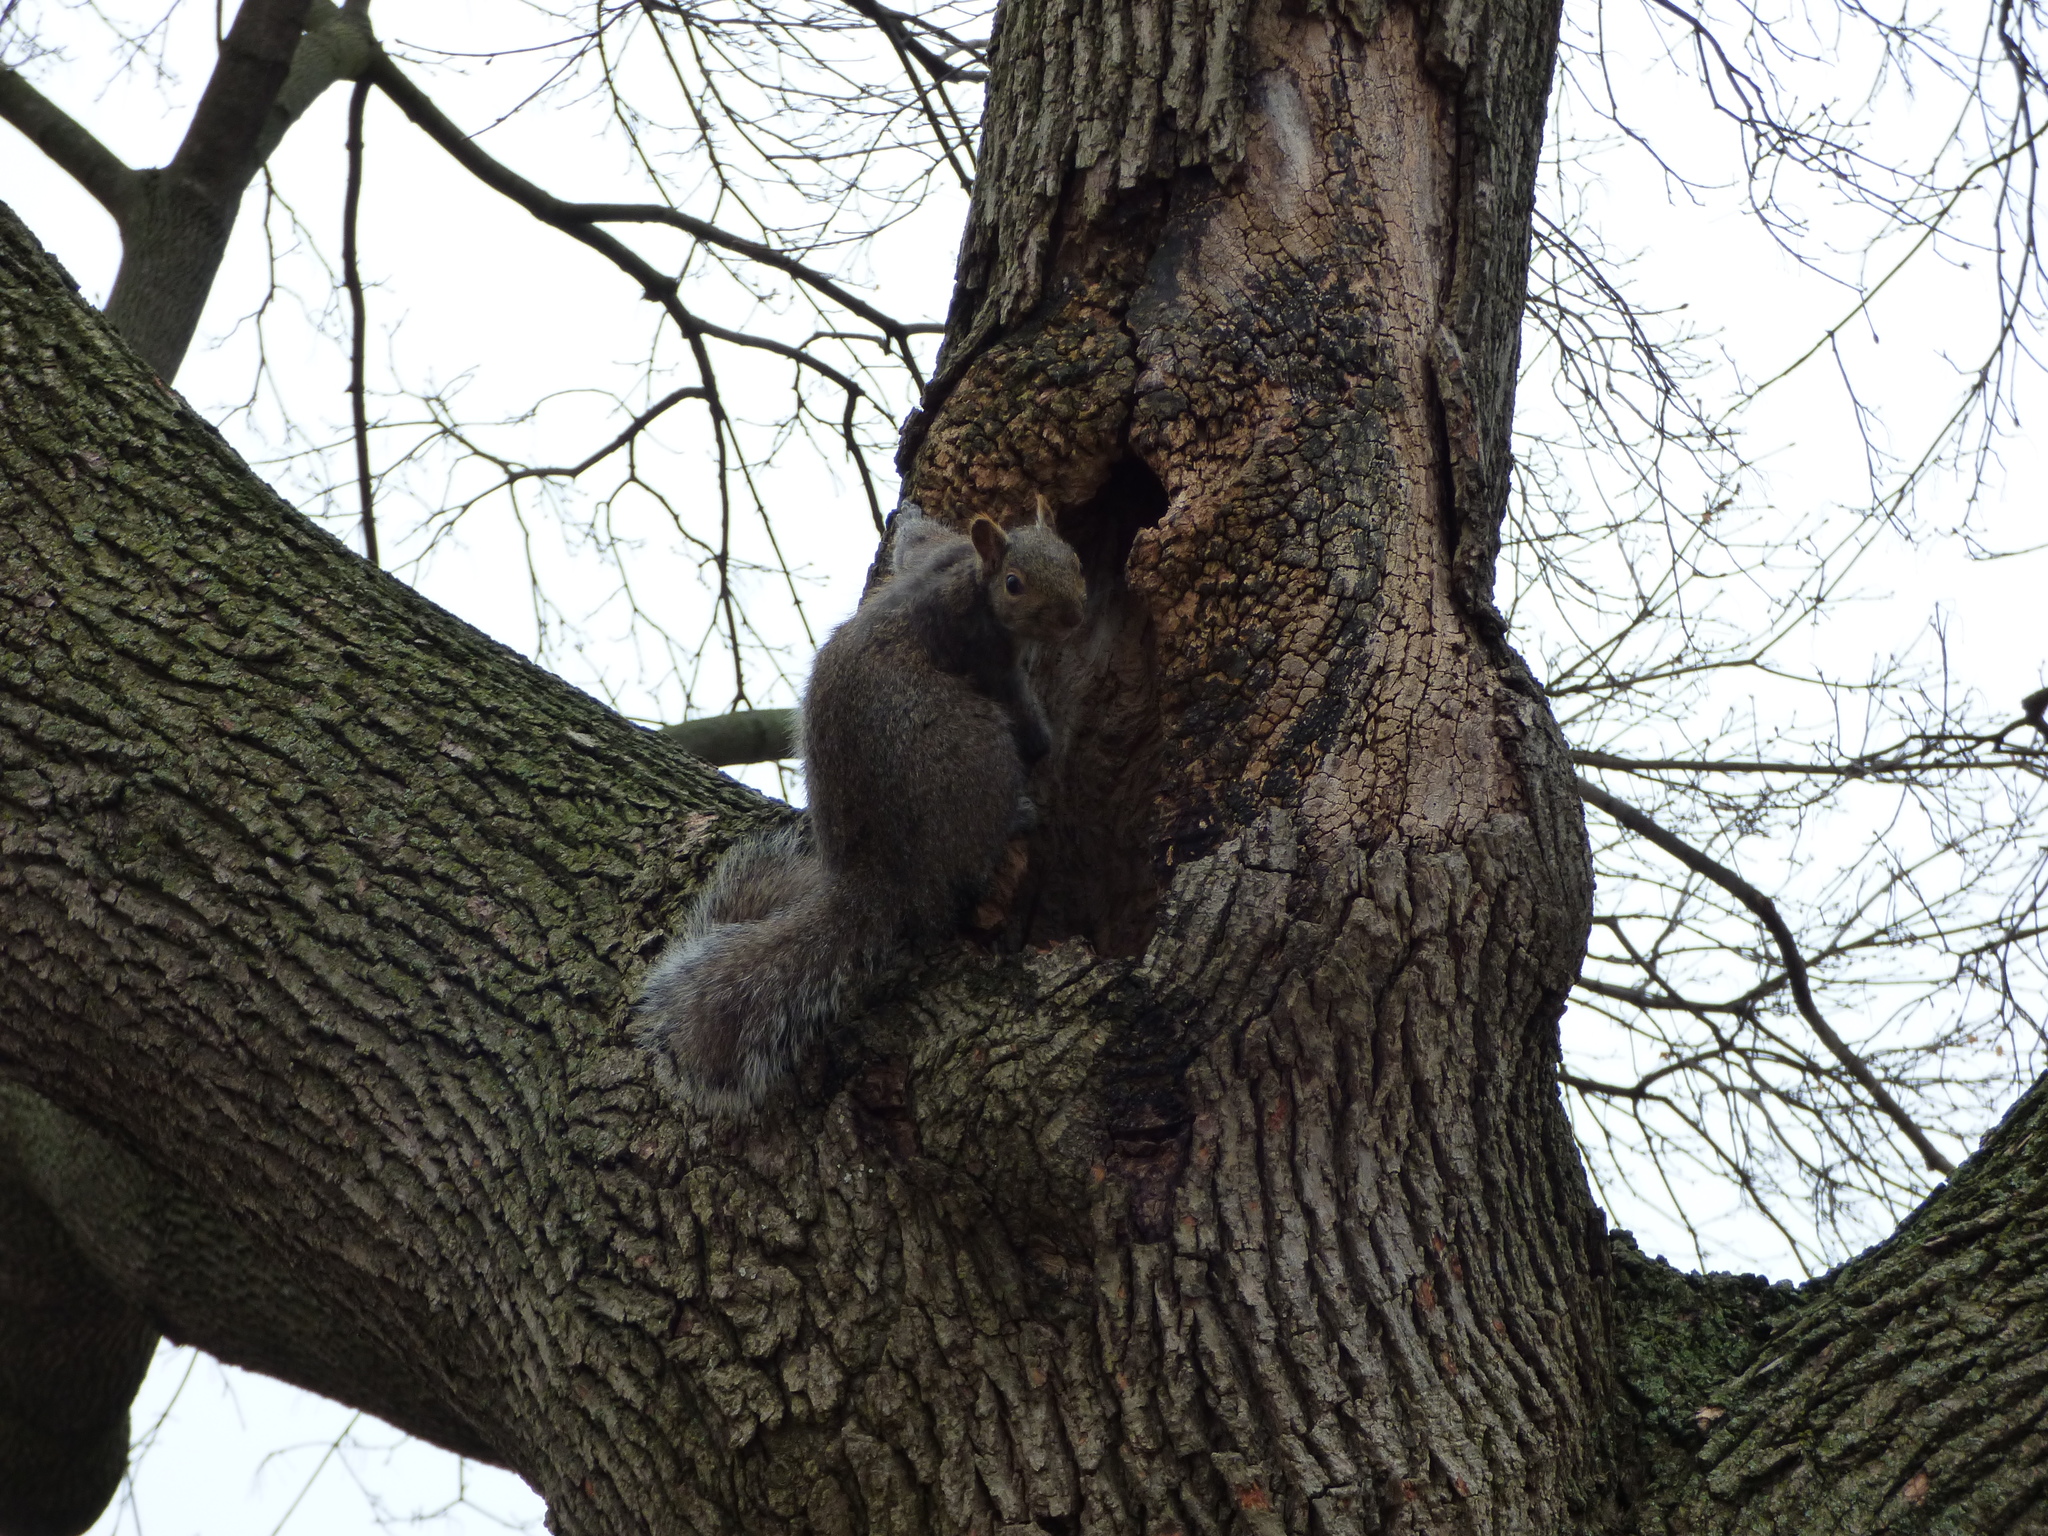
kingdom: Animalia
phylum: Chordata
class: Mammalia
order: Rodentia
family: Sciuridae
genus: Sciurus
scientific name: Sciurus carolinensis
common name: Eastern gray squirrel
